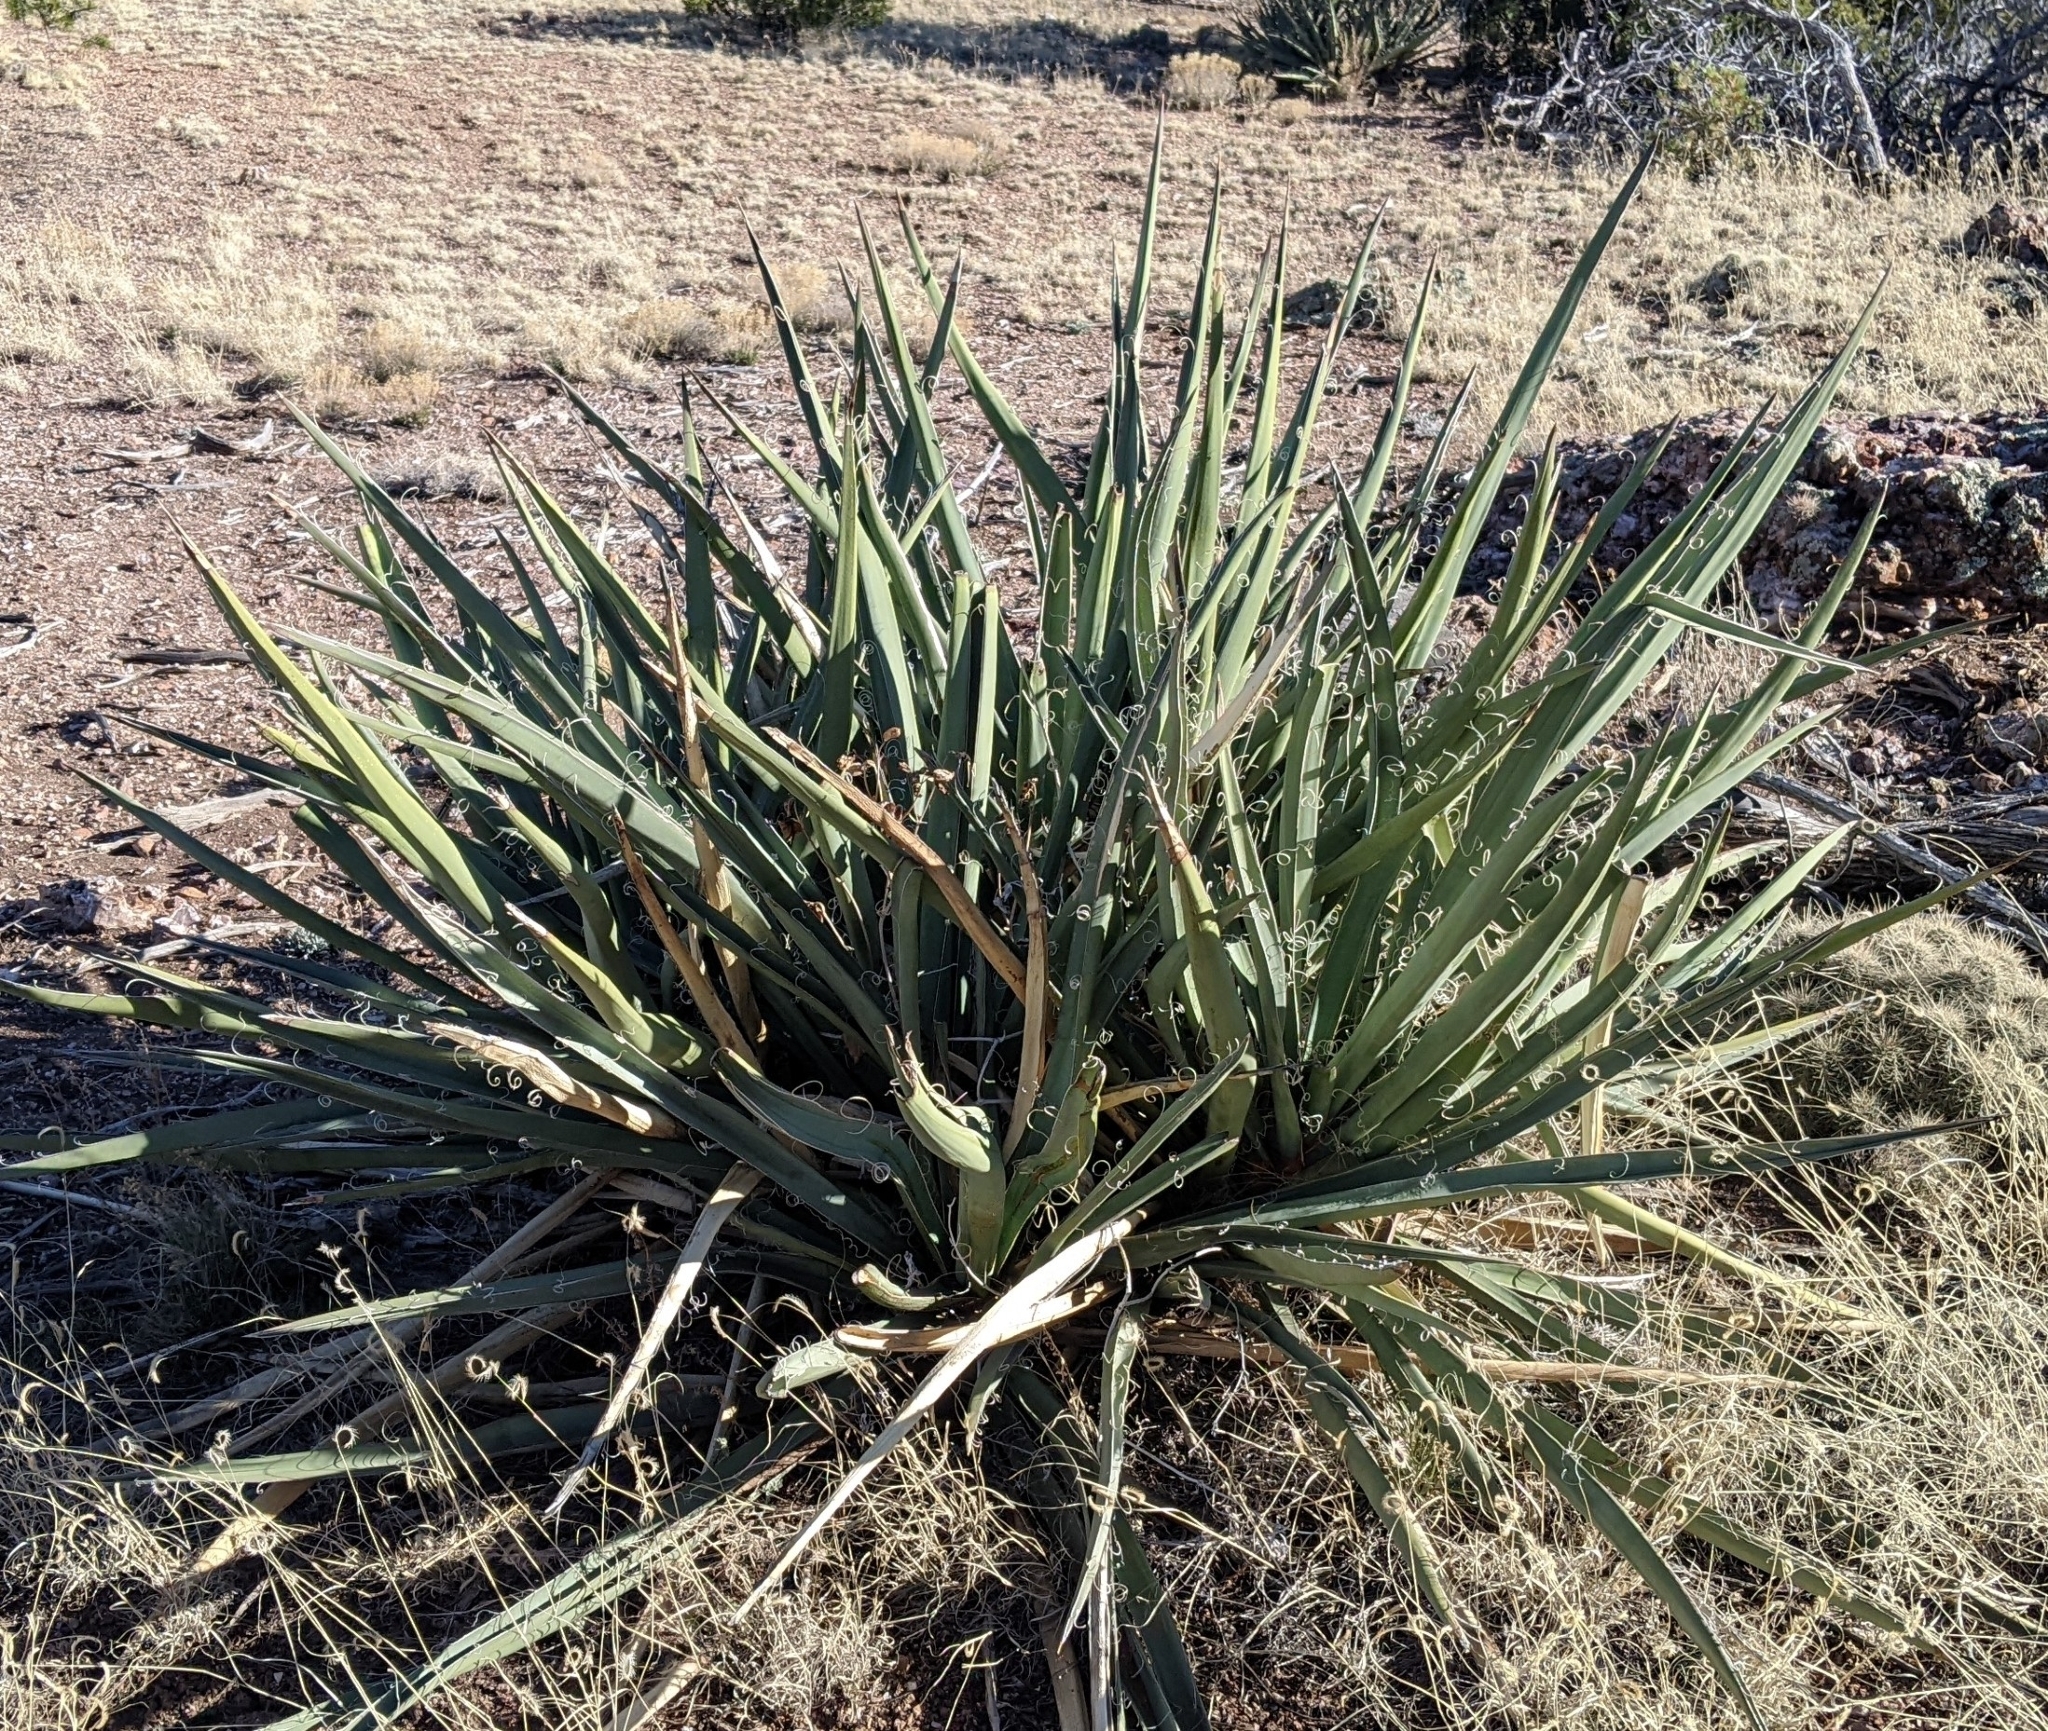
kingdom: Plantae
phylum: Tracheophyta
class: Liliopsida
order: Asparagales
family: Asparagaceae
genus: Yucca
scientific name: Yucca baccata
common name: Banana yucca
